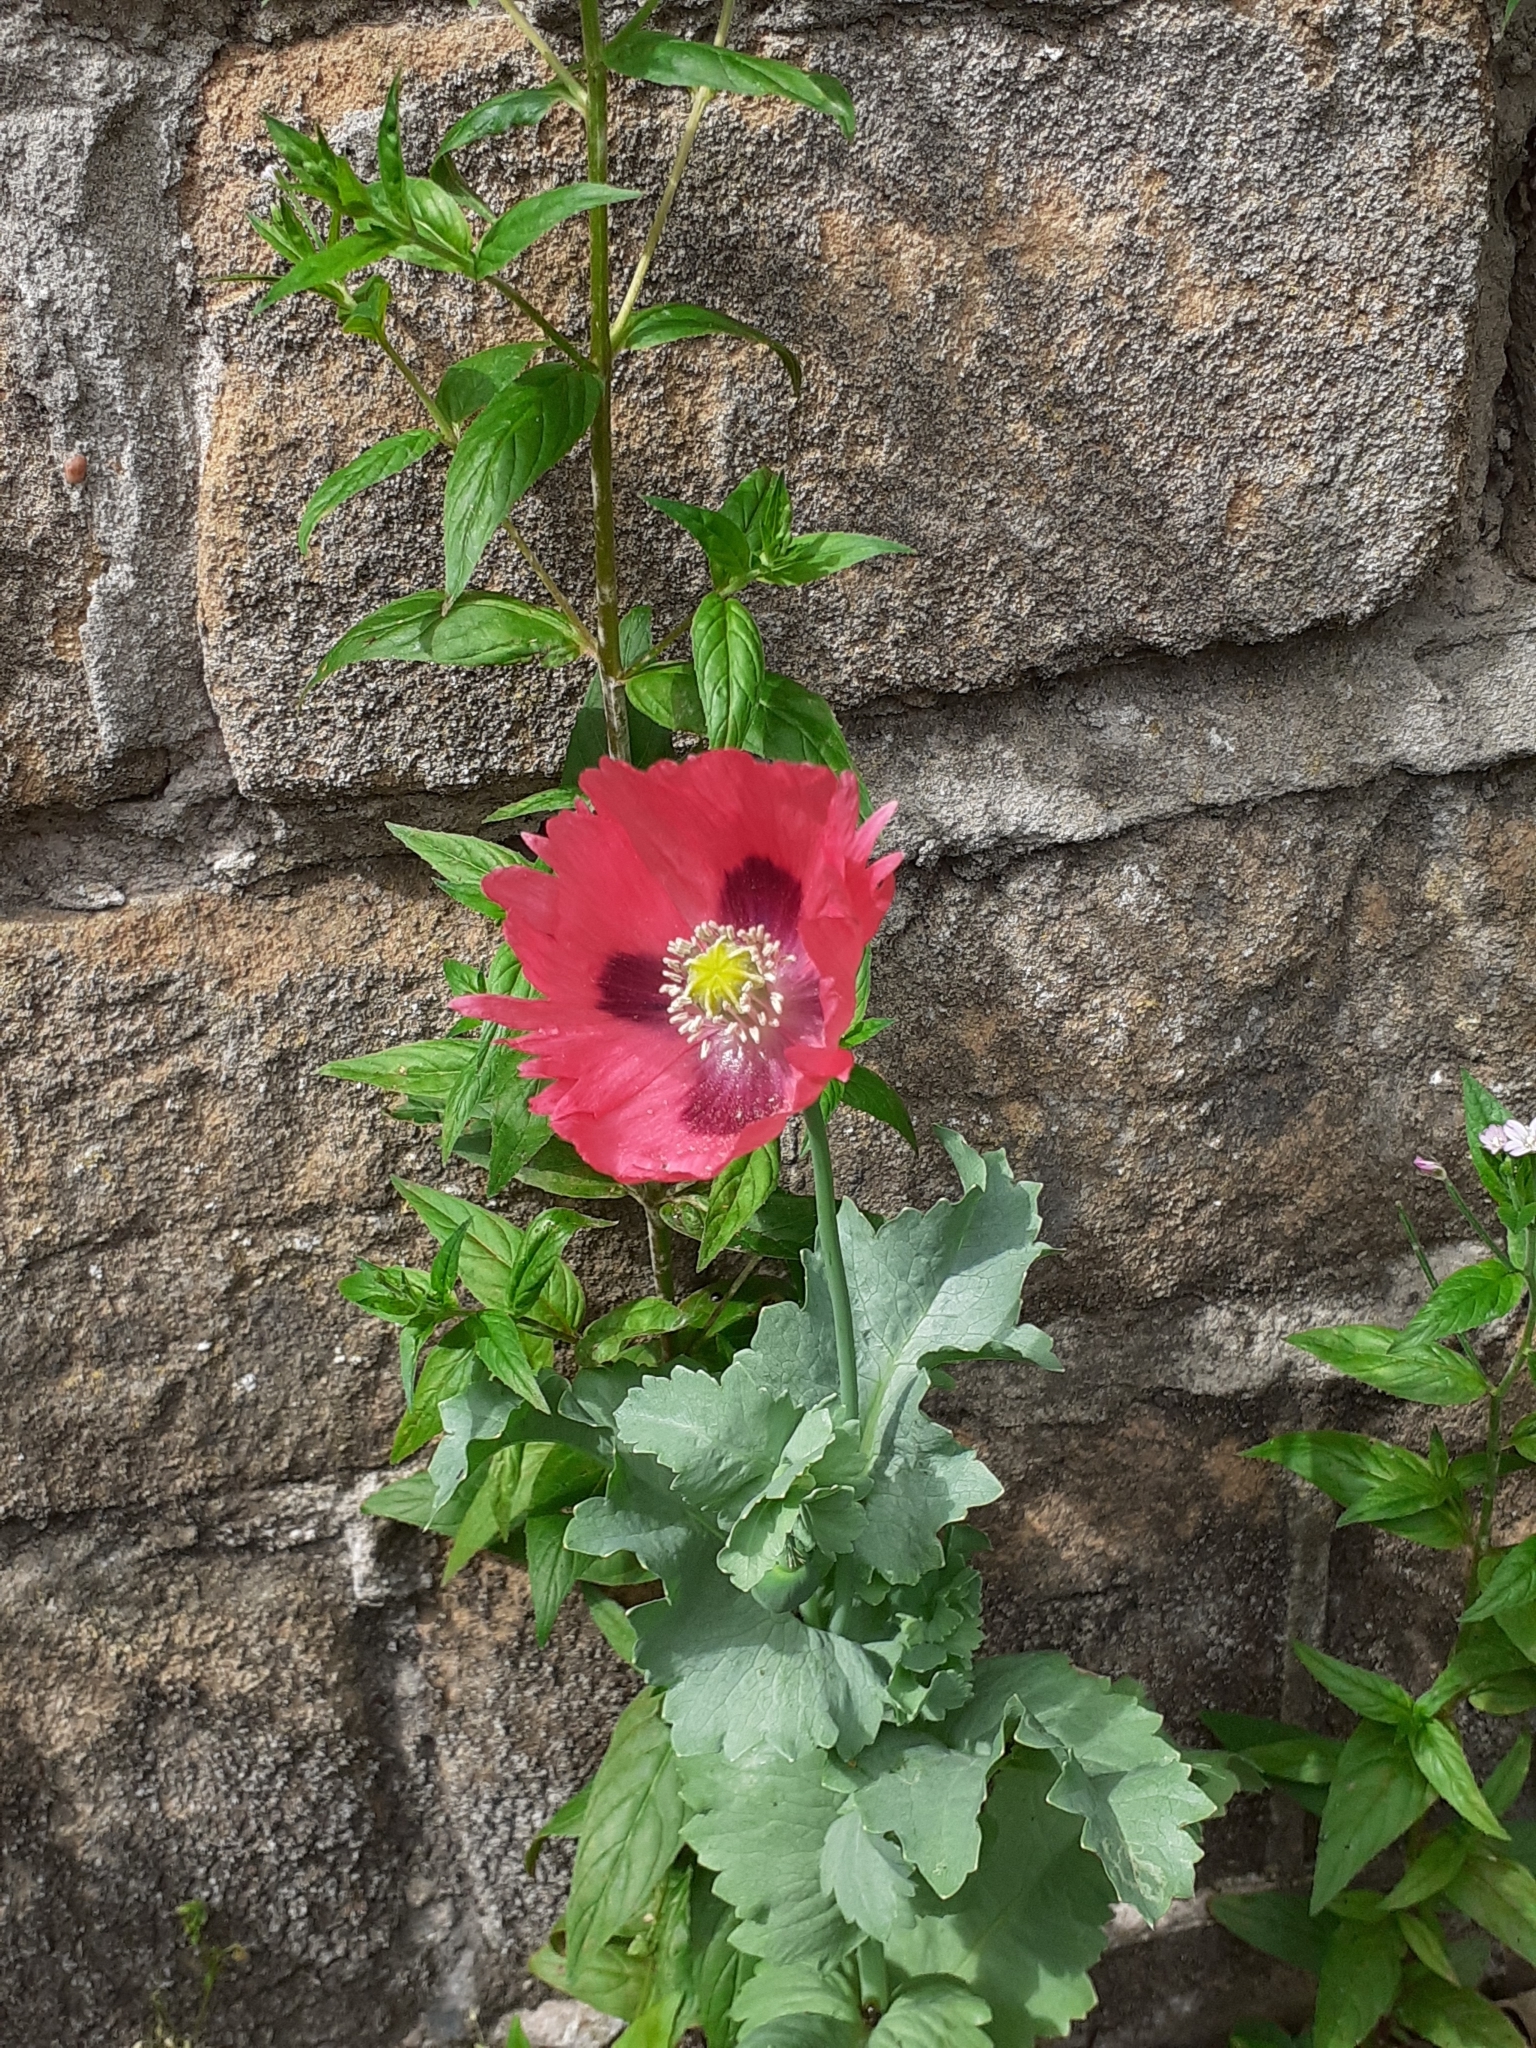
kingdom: Plantae
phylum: Tracheophyta
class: Magnoliopsida
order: Ranunculales
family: Papaveraceae
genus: Papaver
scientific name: Papaver somniferum
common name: Opium poppy
